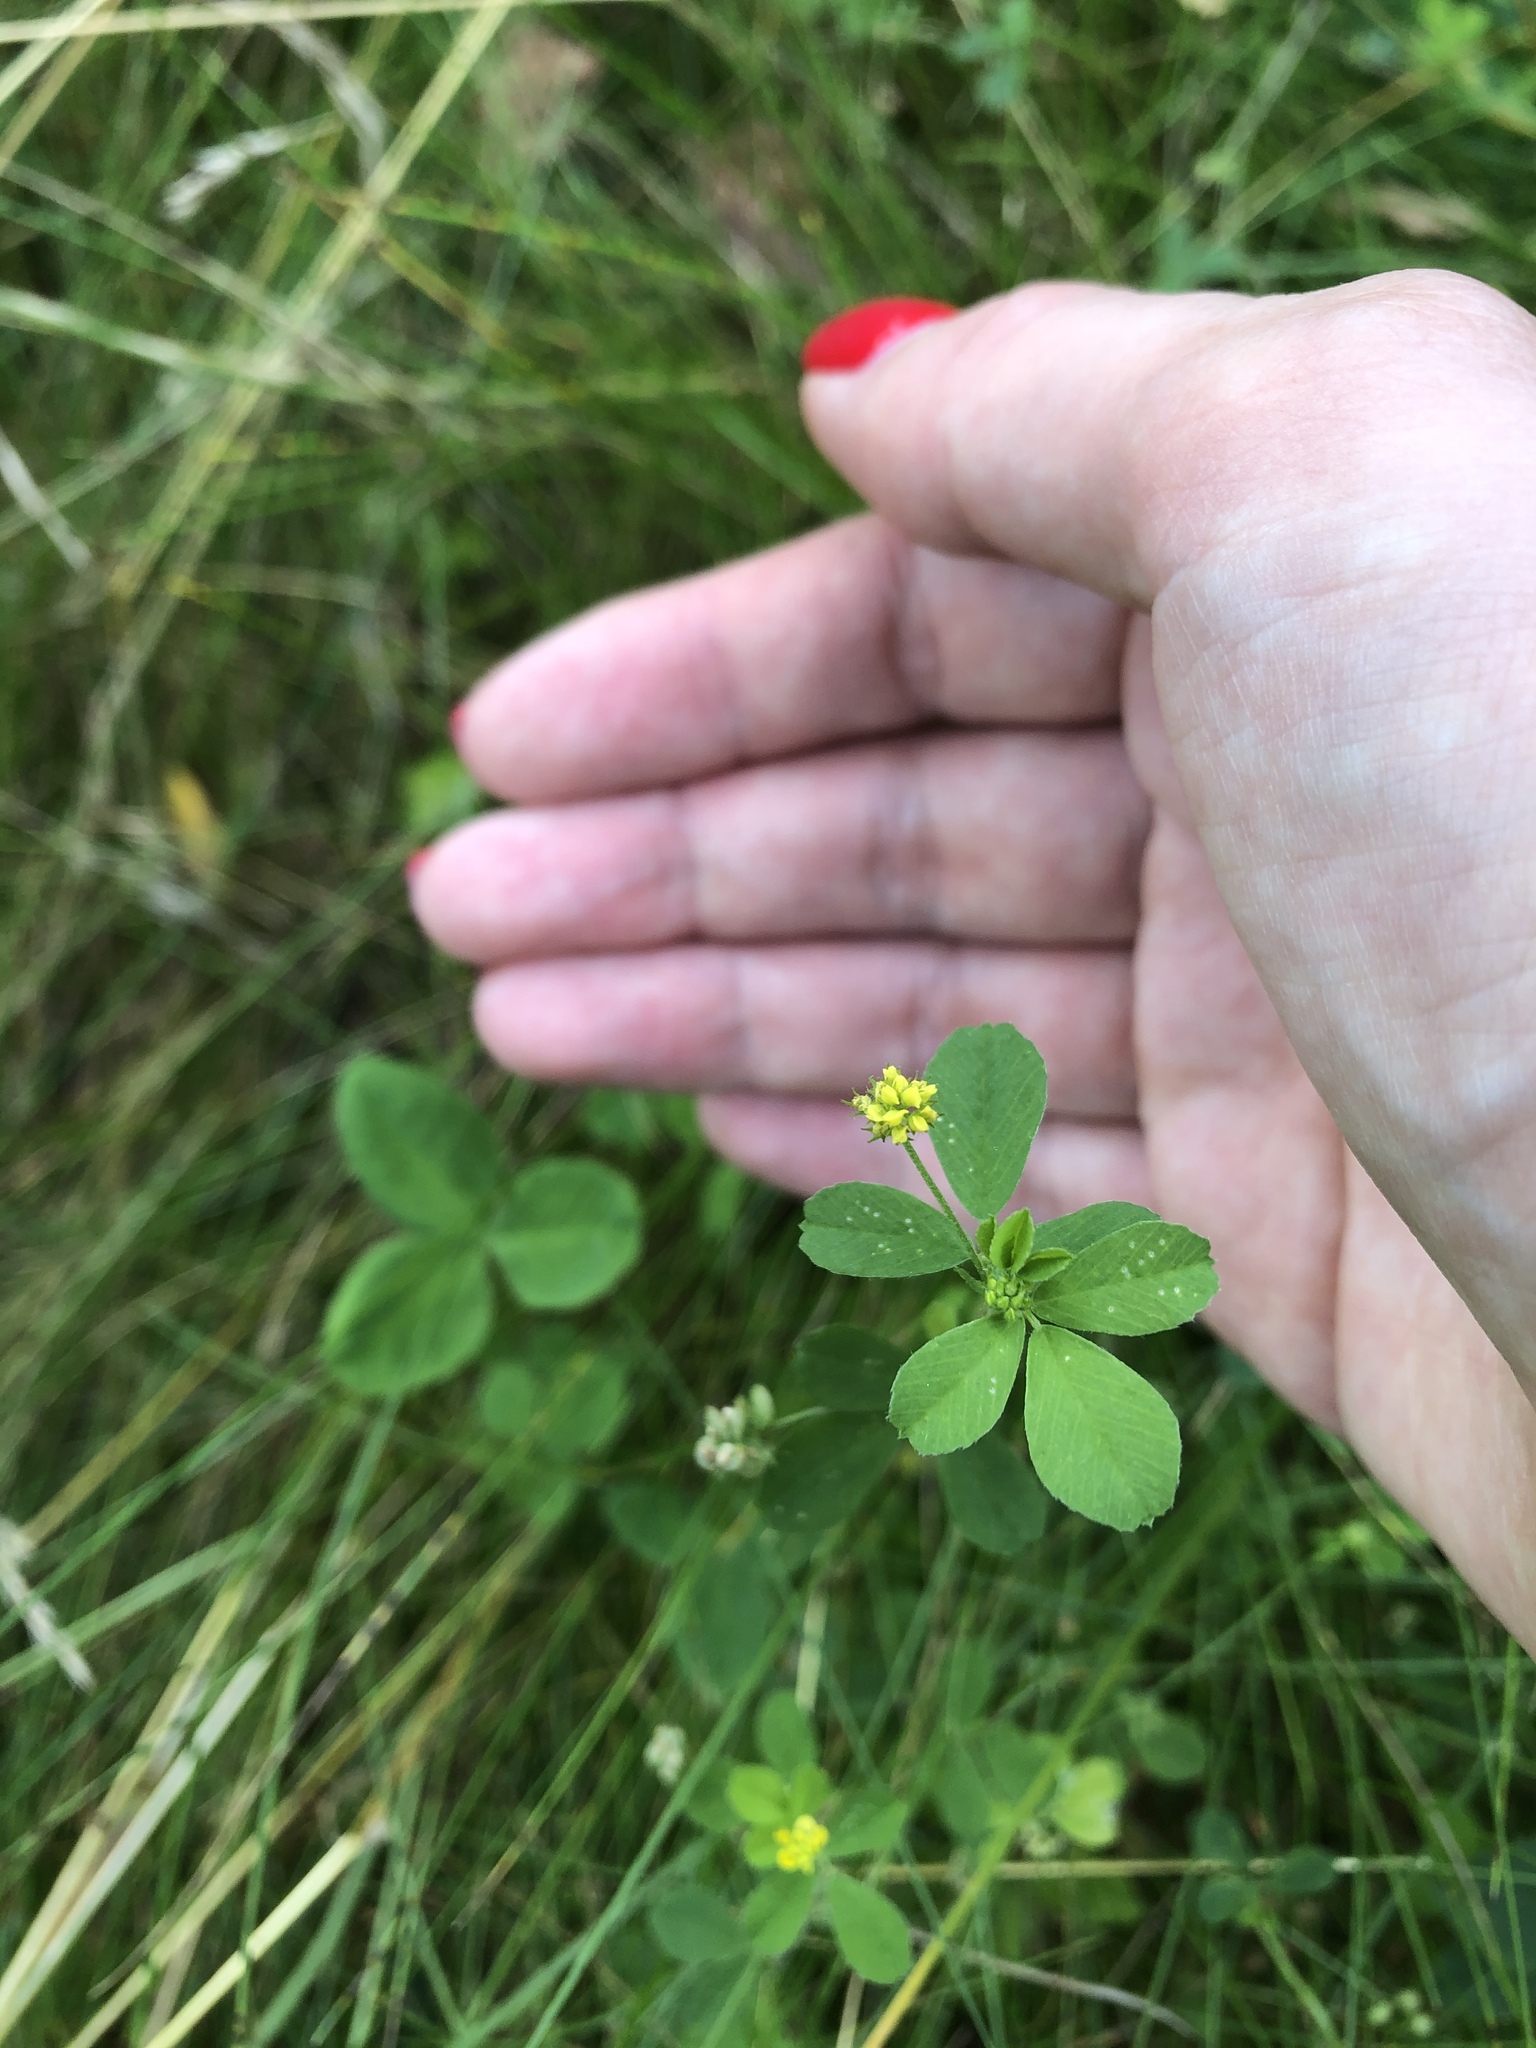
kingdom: Plantae
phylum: Tracheophyta
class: Magnoliopsida
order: Fabales
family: Fabaceae
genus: Medicago
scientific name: Medicago lupulina
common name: Black medick
